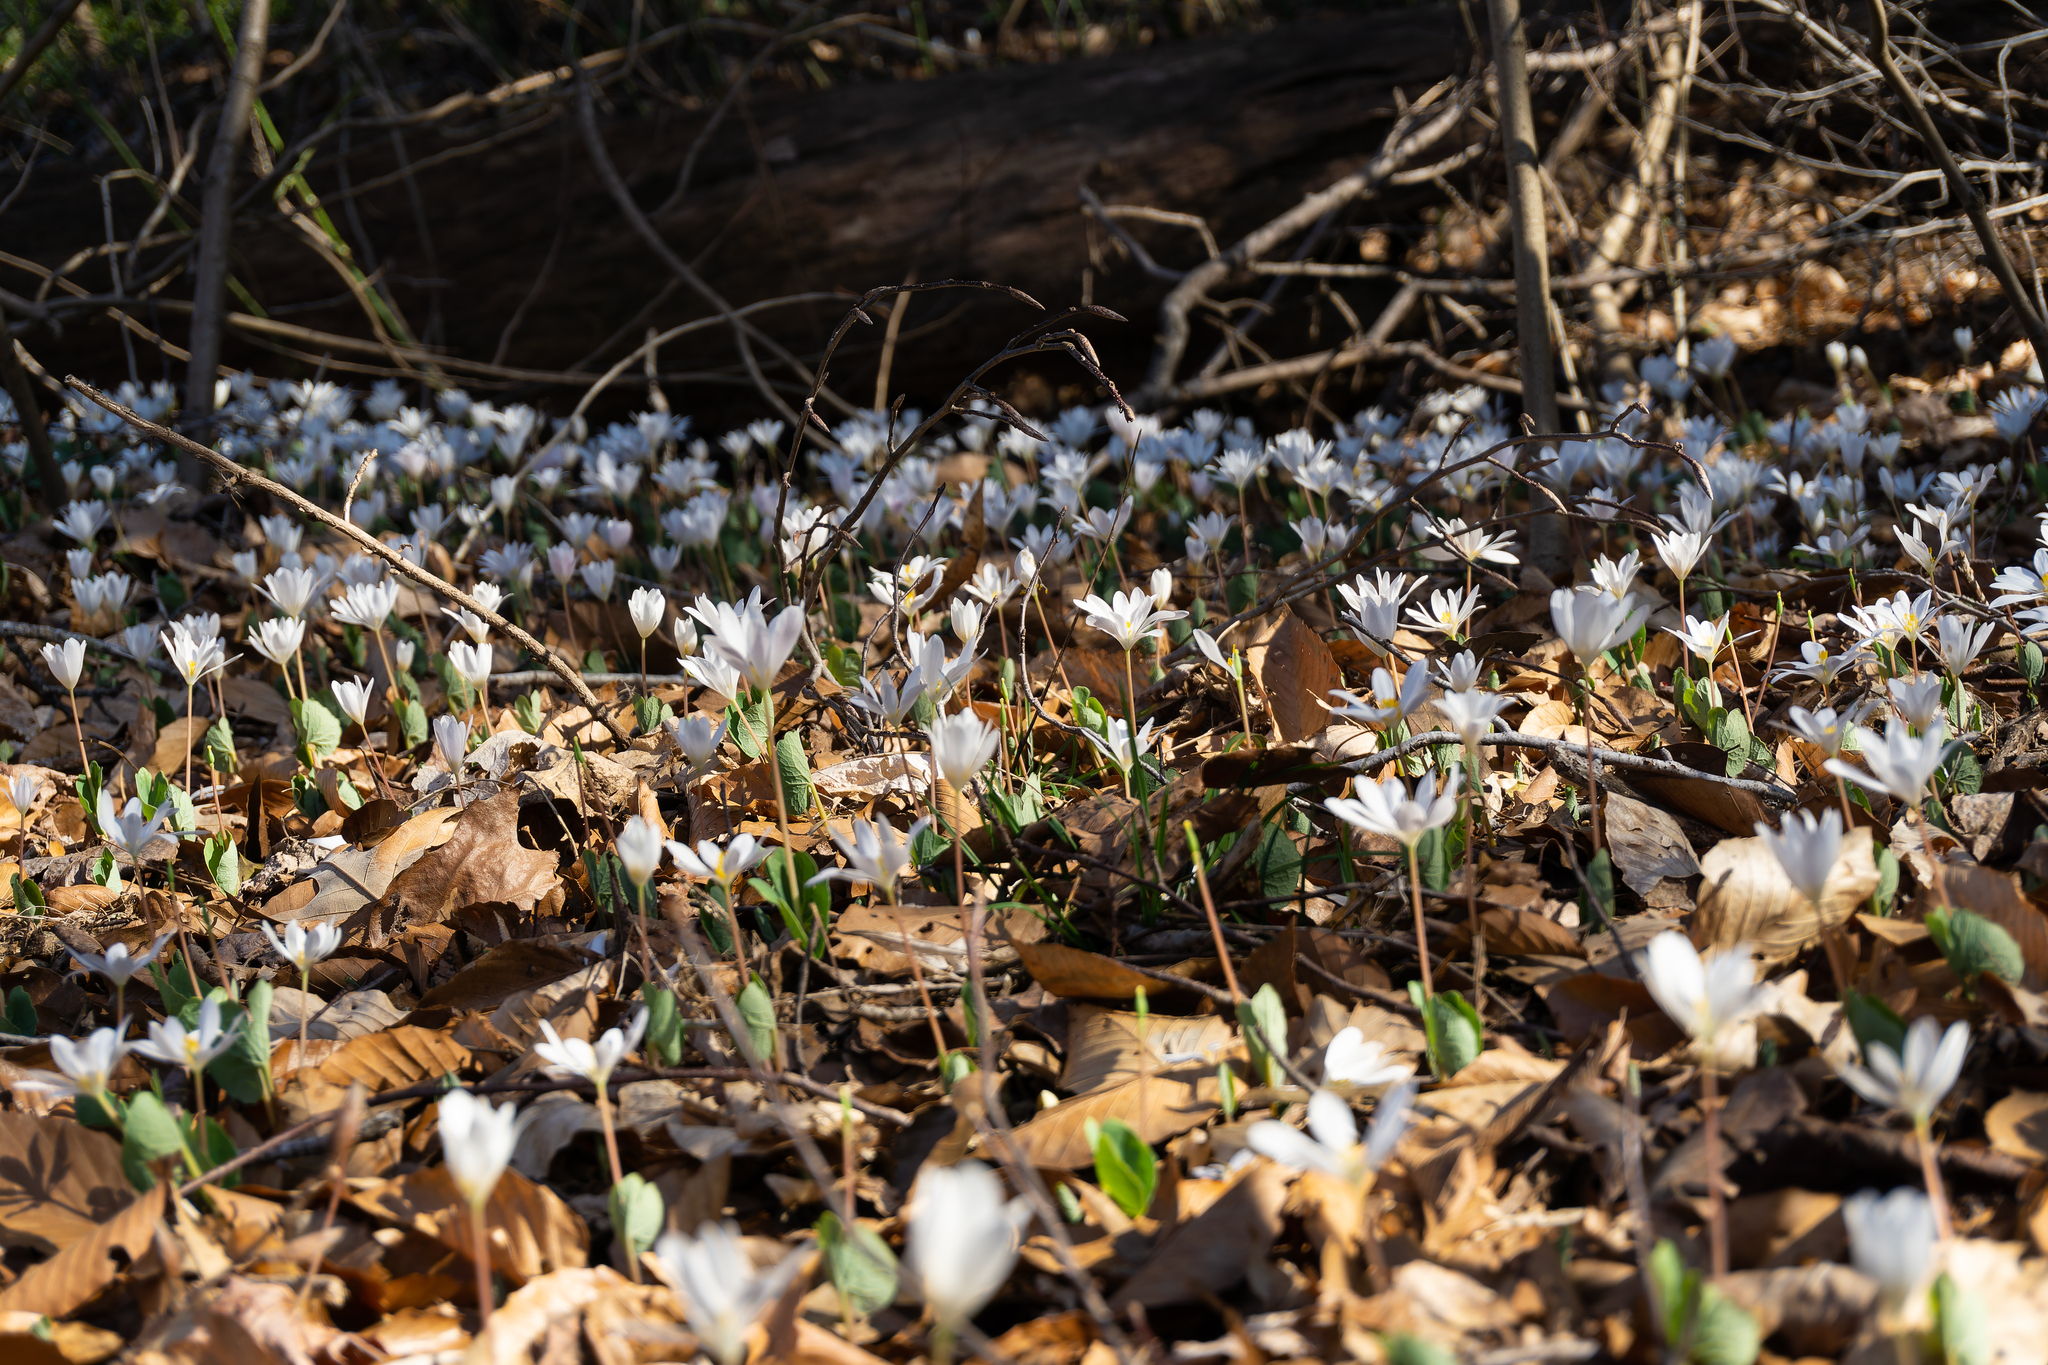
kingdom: Plantae
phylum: Tracheophyta
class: Magnoliopsida
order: Ranunculales
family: Papaveraceae
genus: Sanguinaria
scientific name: Sanguinaria canadensis
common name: Bloodroot
